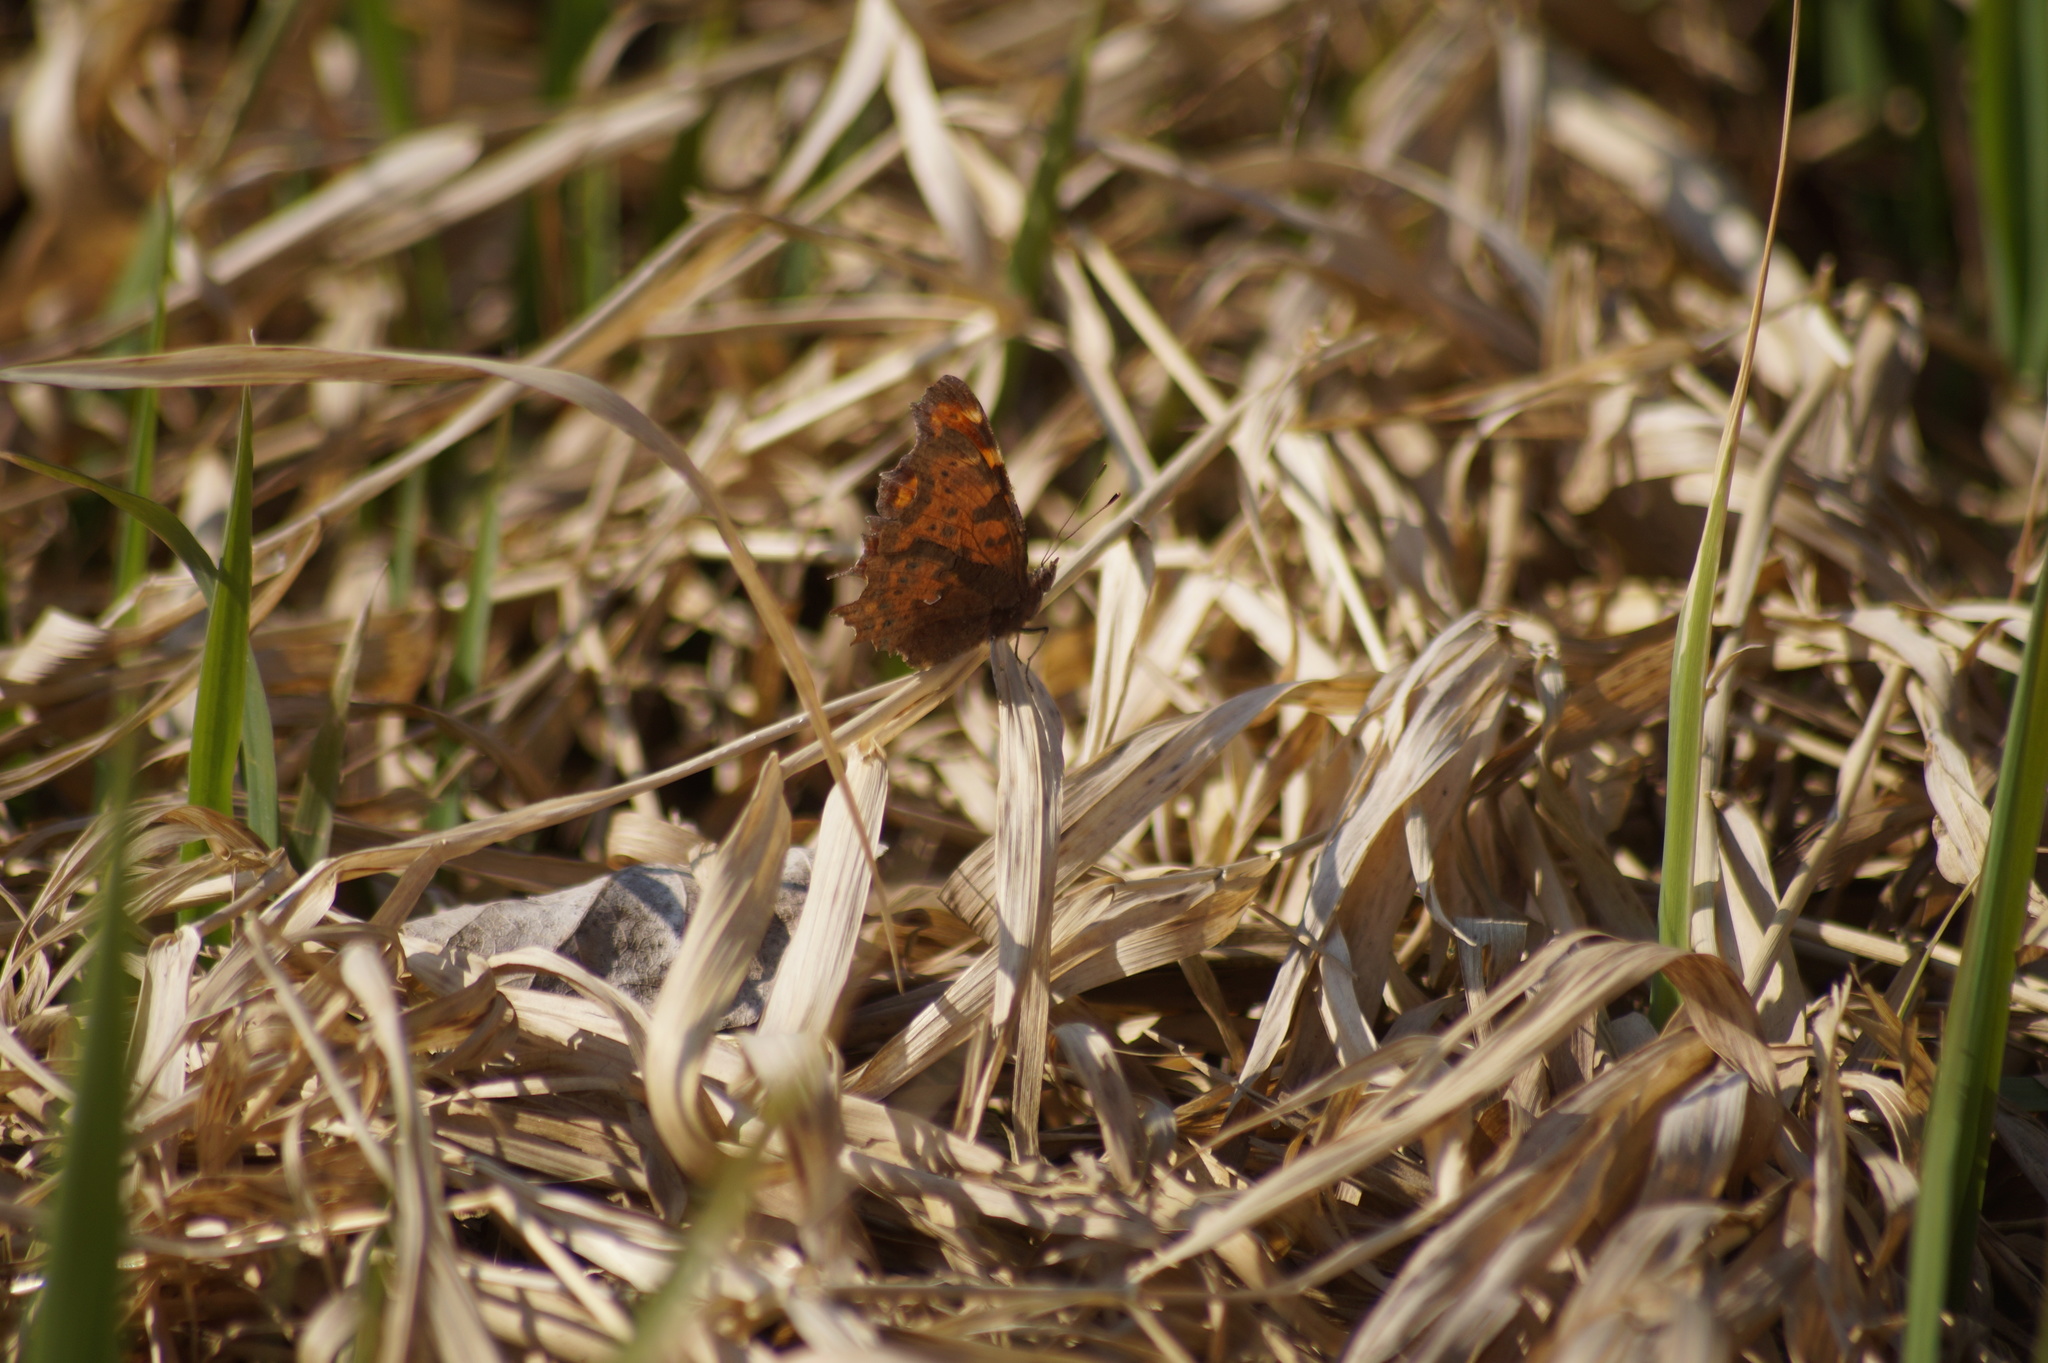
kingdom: Animalia
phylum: Arthropoda
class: Insecta
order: Lepidoptera
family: Nymphalidae
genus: Polygonia
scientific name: Polygonia c-album
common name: Comma
